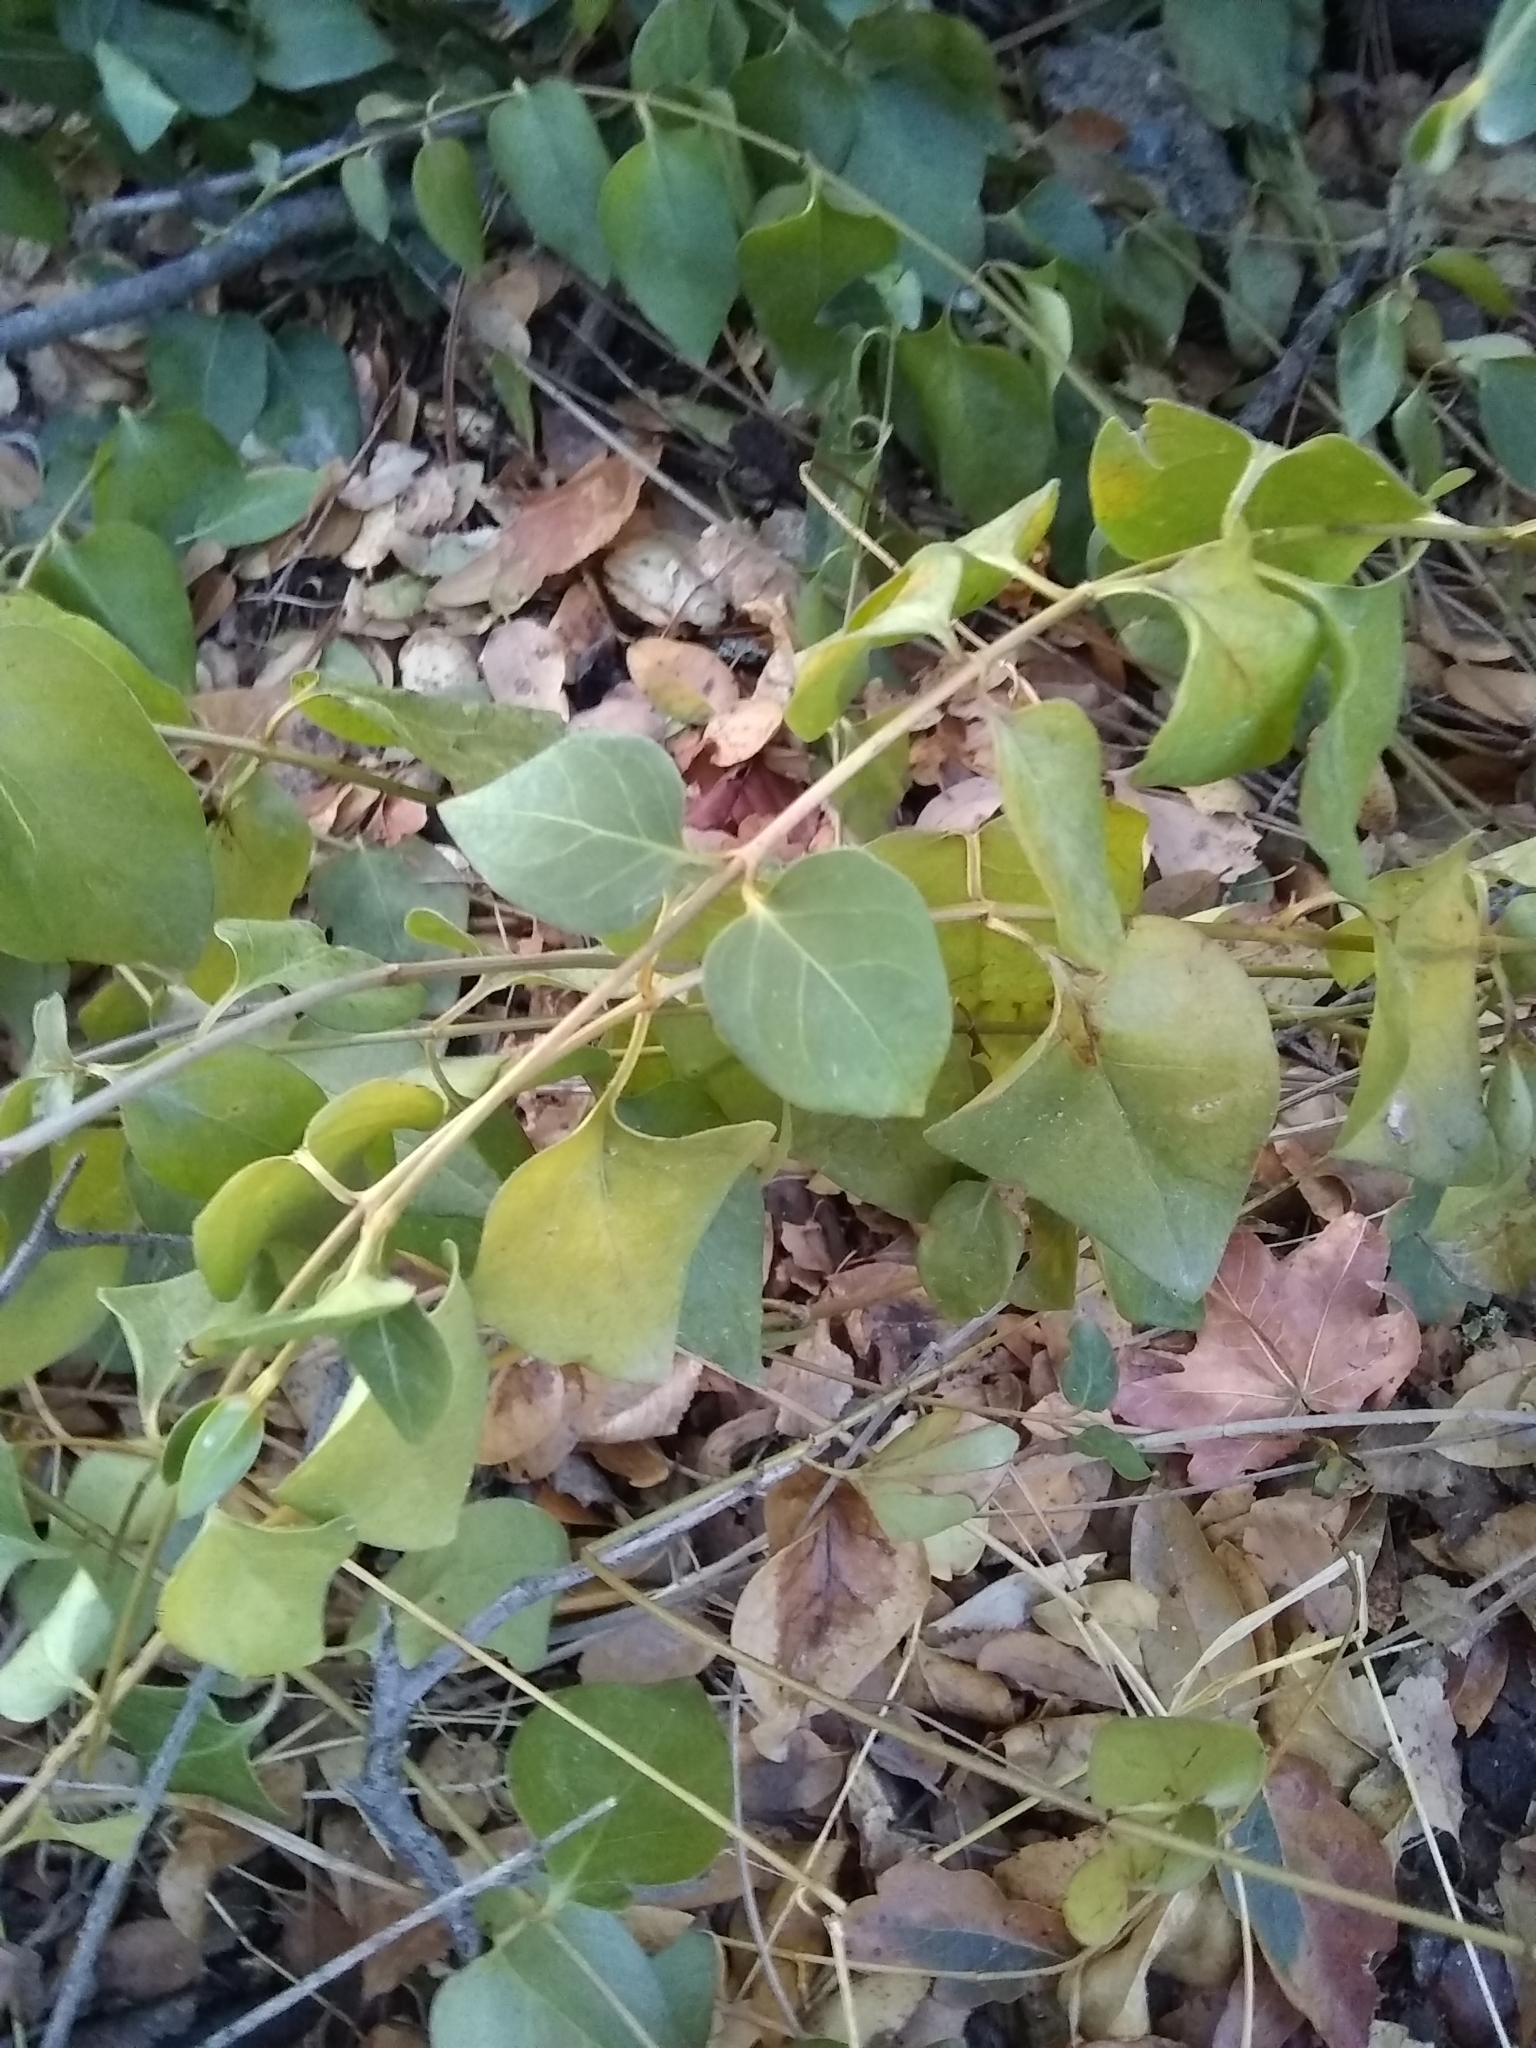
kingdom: Plantae
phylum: Tracheophyta
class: Magnoliopsida
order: Gentianales
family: Apocynaceae
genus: Vinca
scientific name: Vinca major
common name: Greater periwinkle
